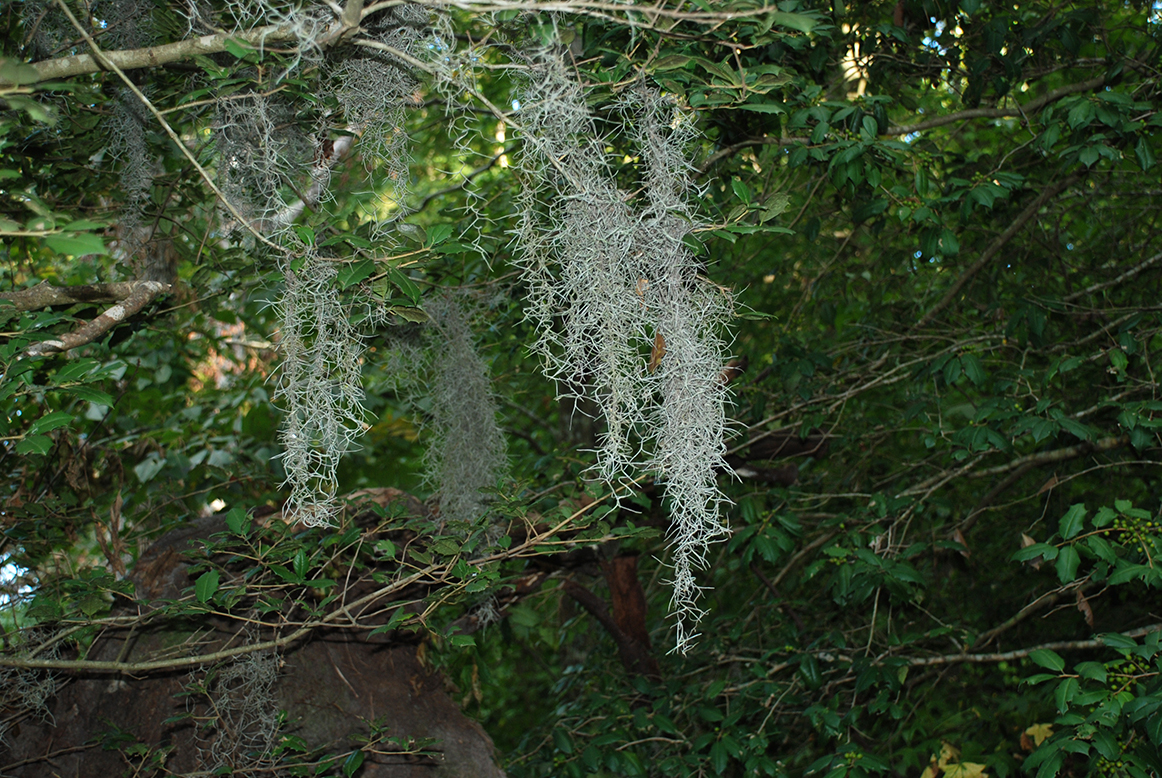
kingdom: Plantae
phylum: Tracheophyta
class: Liliopsida
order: Poales
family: Bromeliaceae
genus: Tillandsia
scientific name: Tillandsia usneoides
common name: Spanish moss
